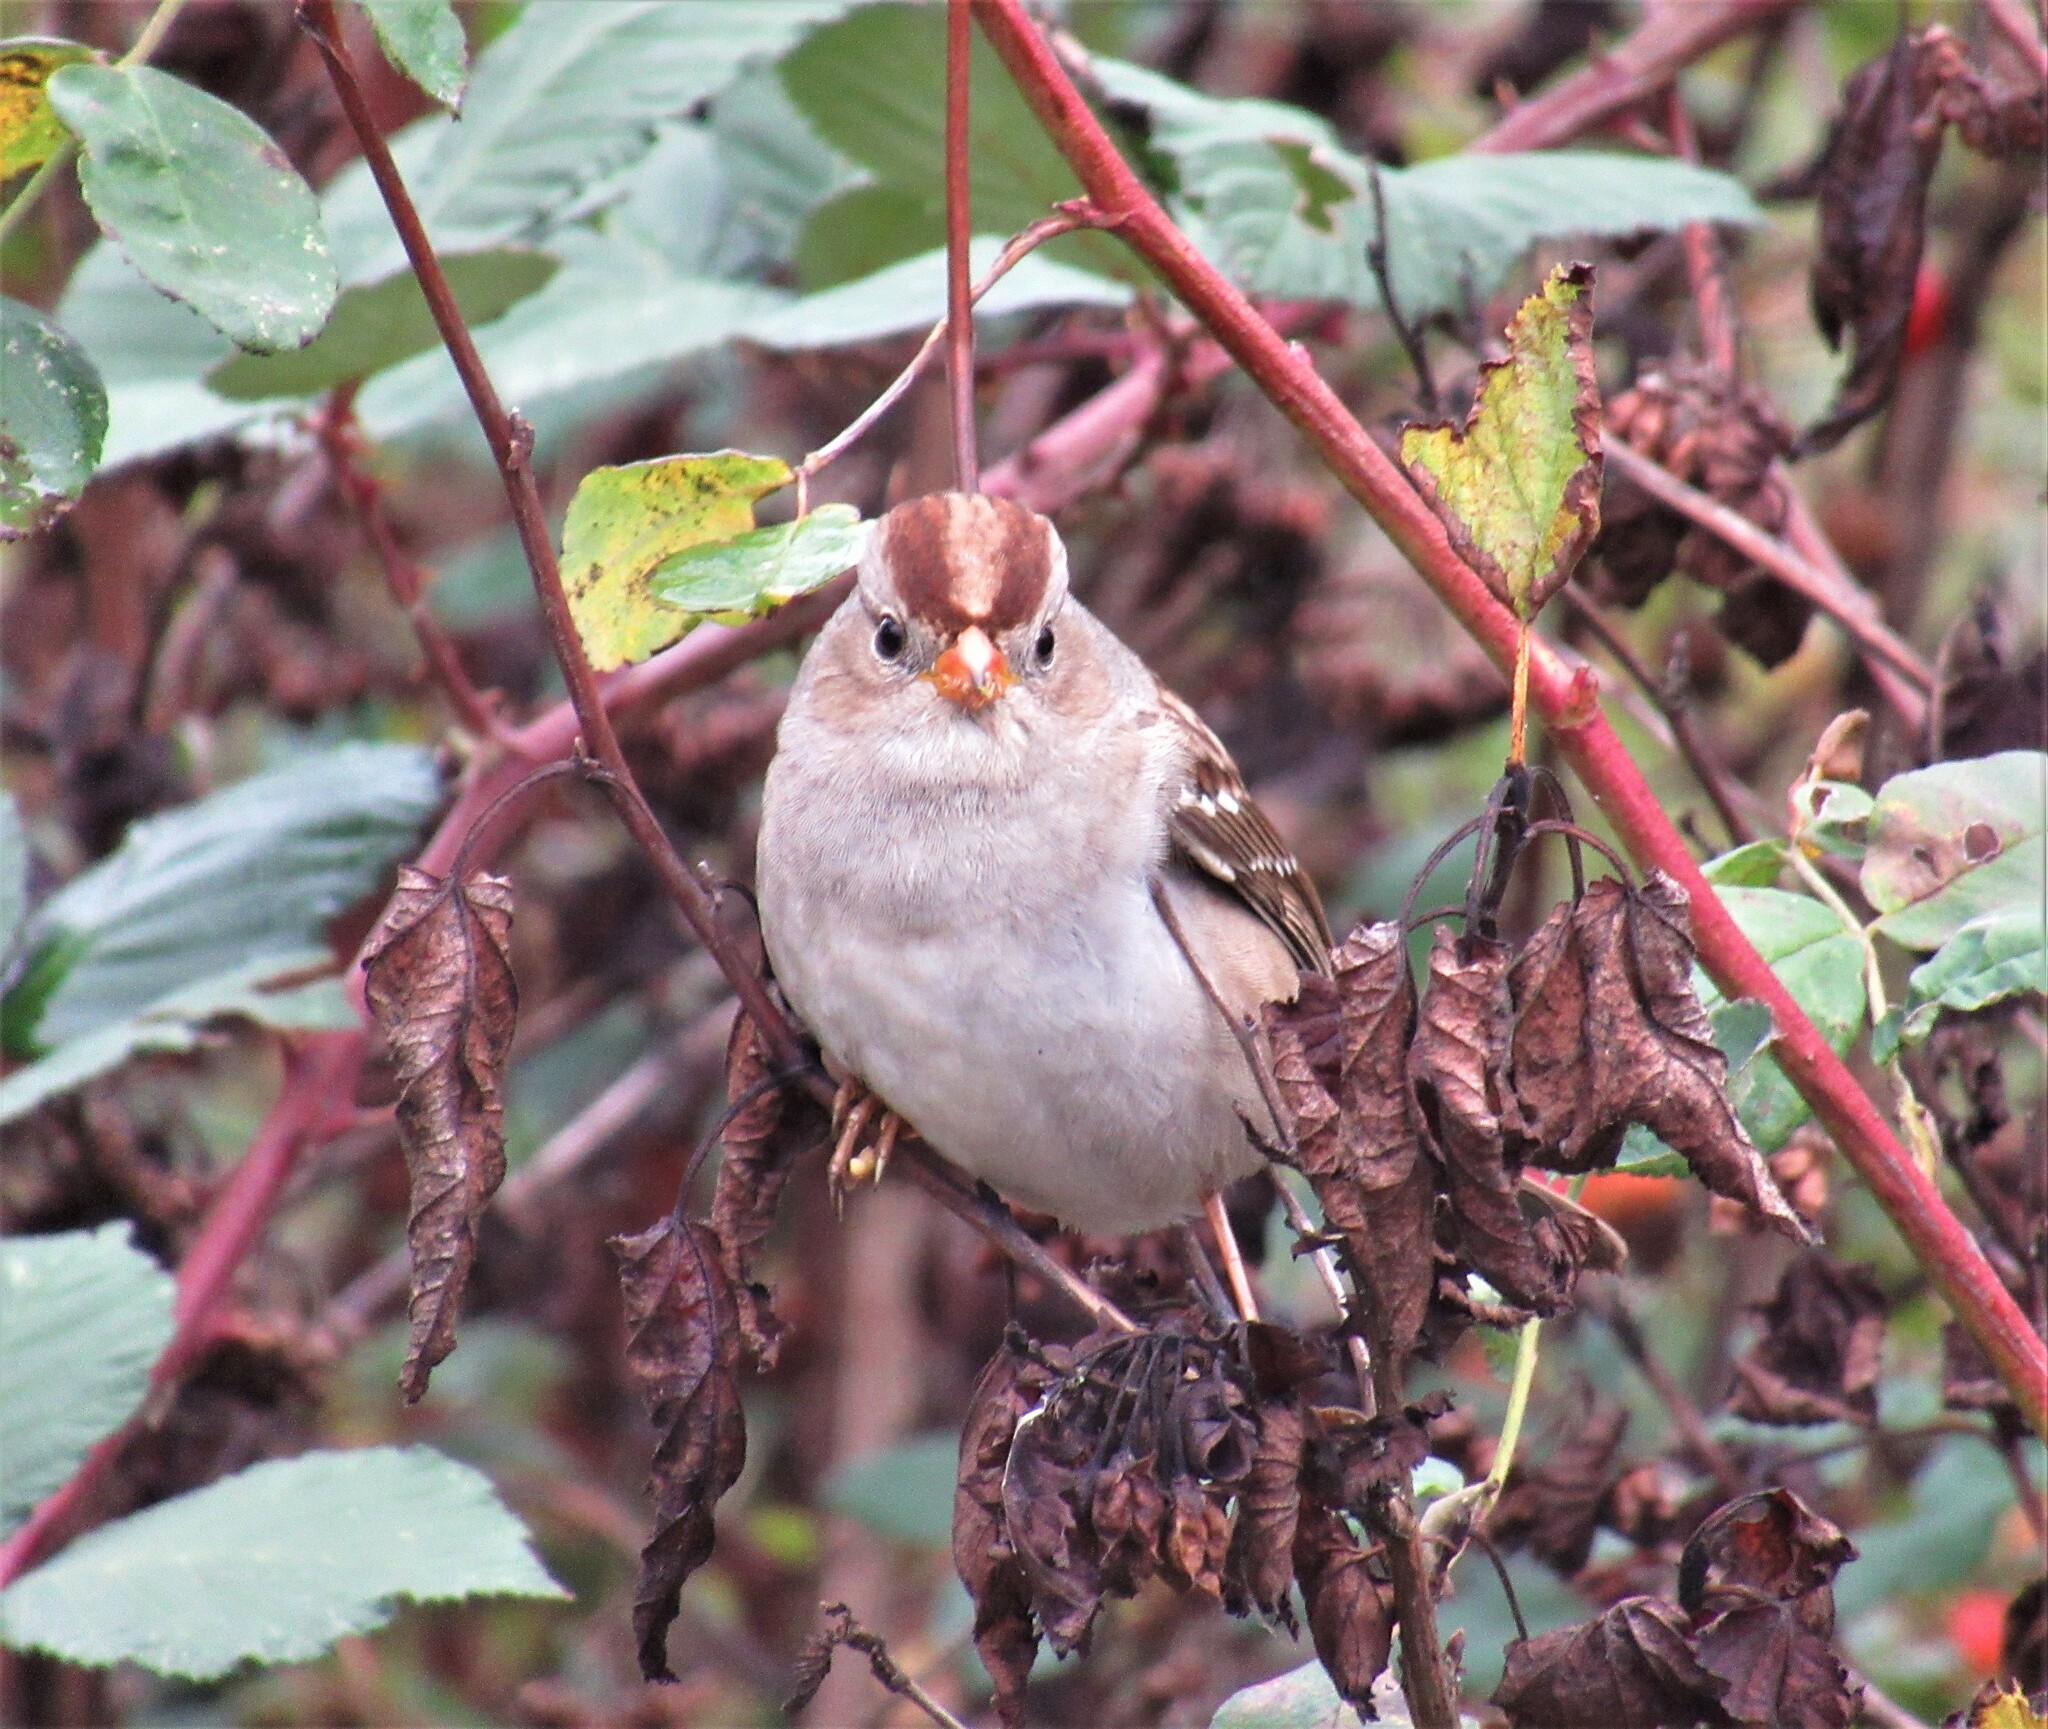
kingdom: Animalia
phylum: Chordata
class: Aves
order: Passeriformes
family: Passerellidae
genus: Zonotrichia
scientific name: Zonotrichia leucophrys
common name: White-crowned sparrow
